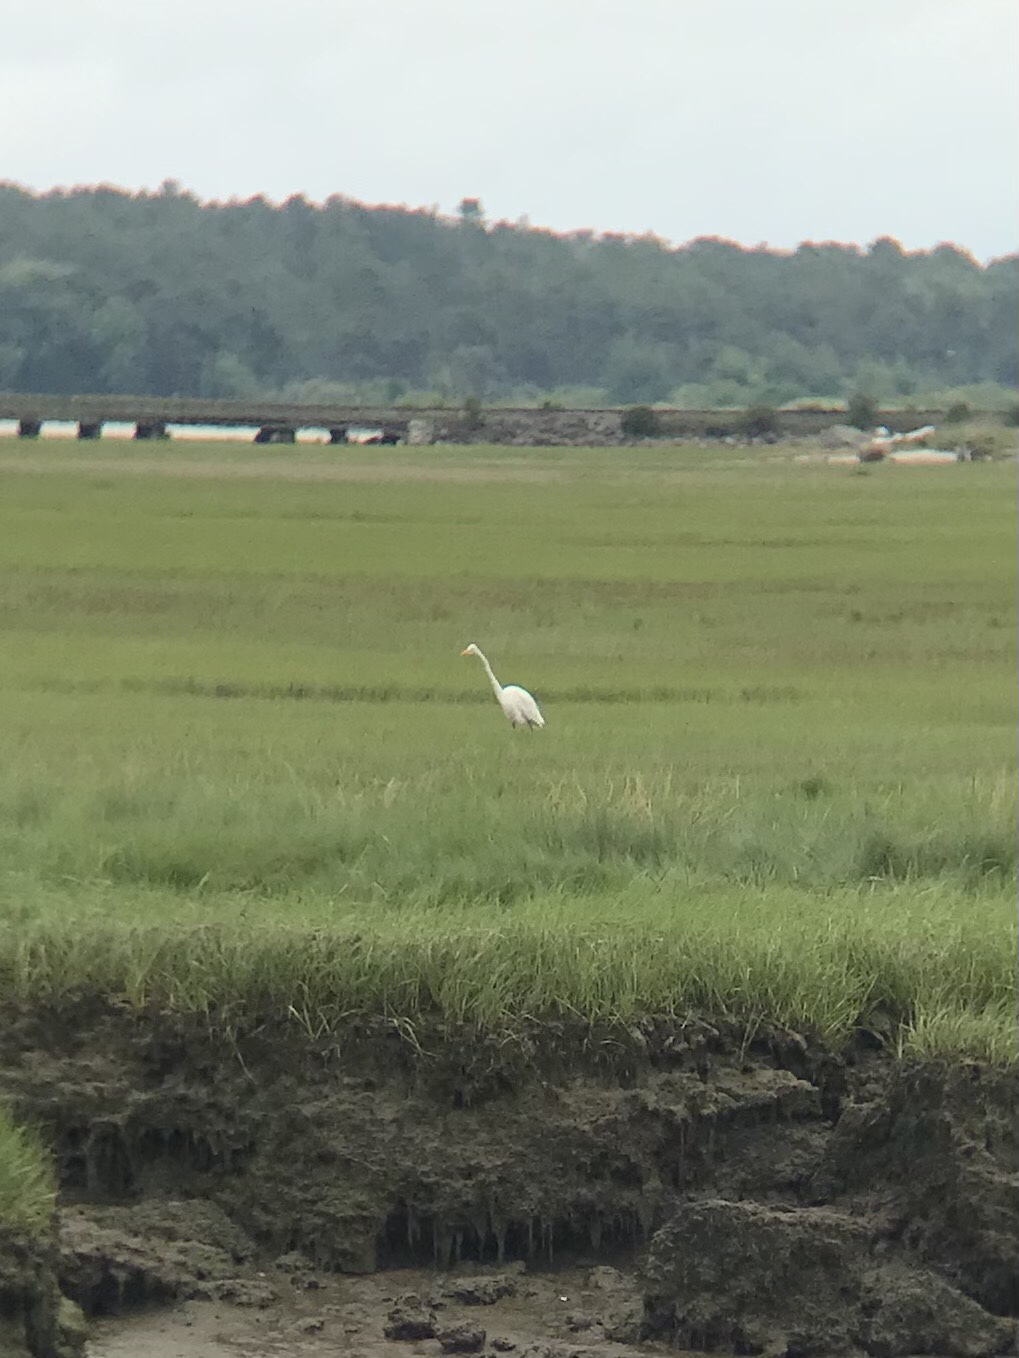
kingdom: Animalia
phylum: Chordata
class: Aves
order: Pelecaniformes
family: Ardeidae
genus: Ardea
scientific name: Ardea alba
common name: Great egret
